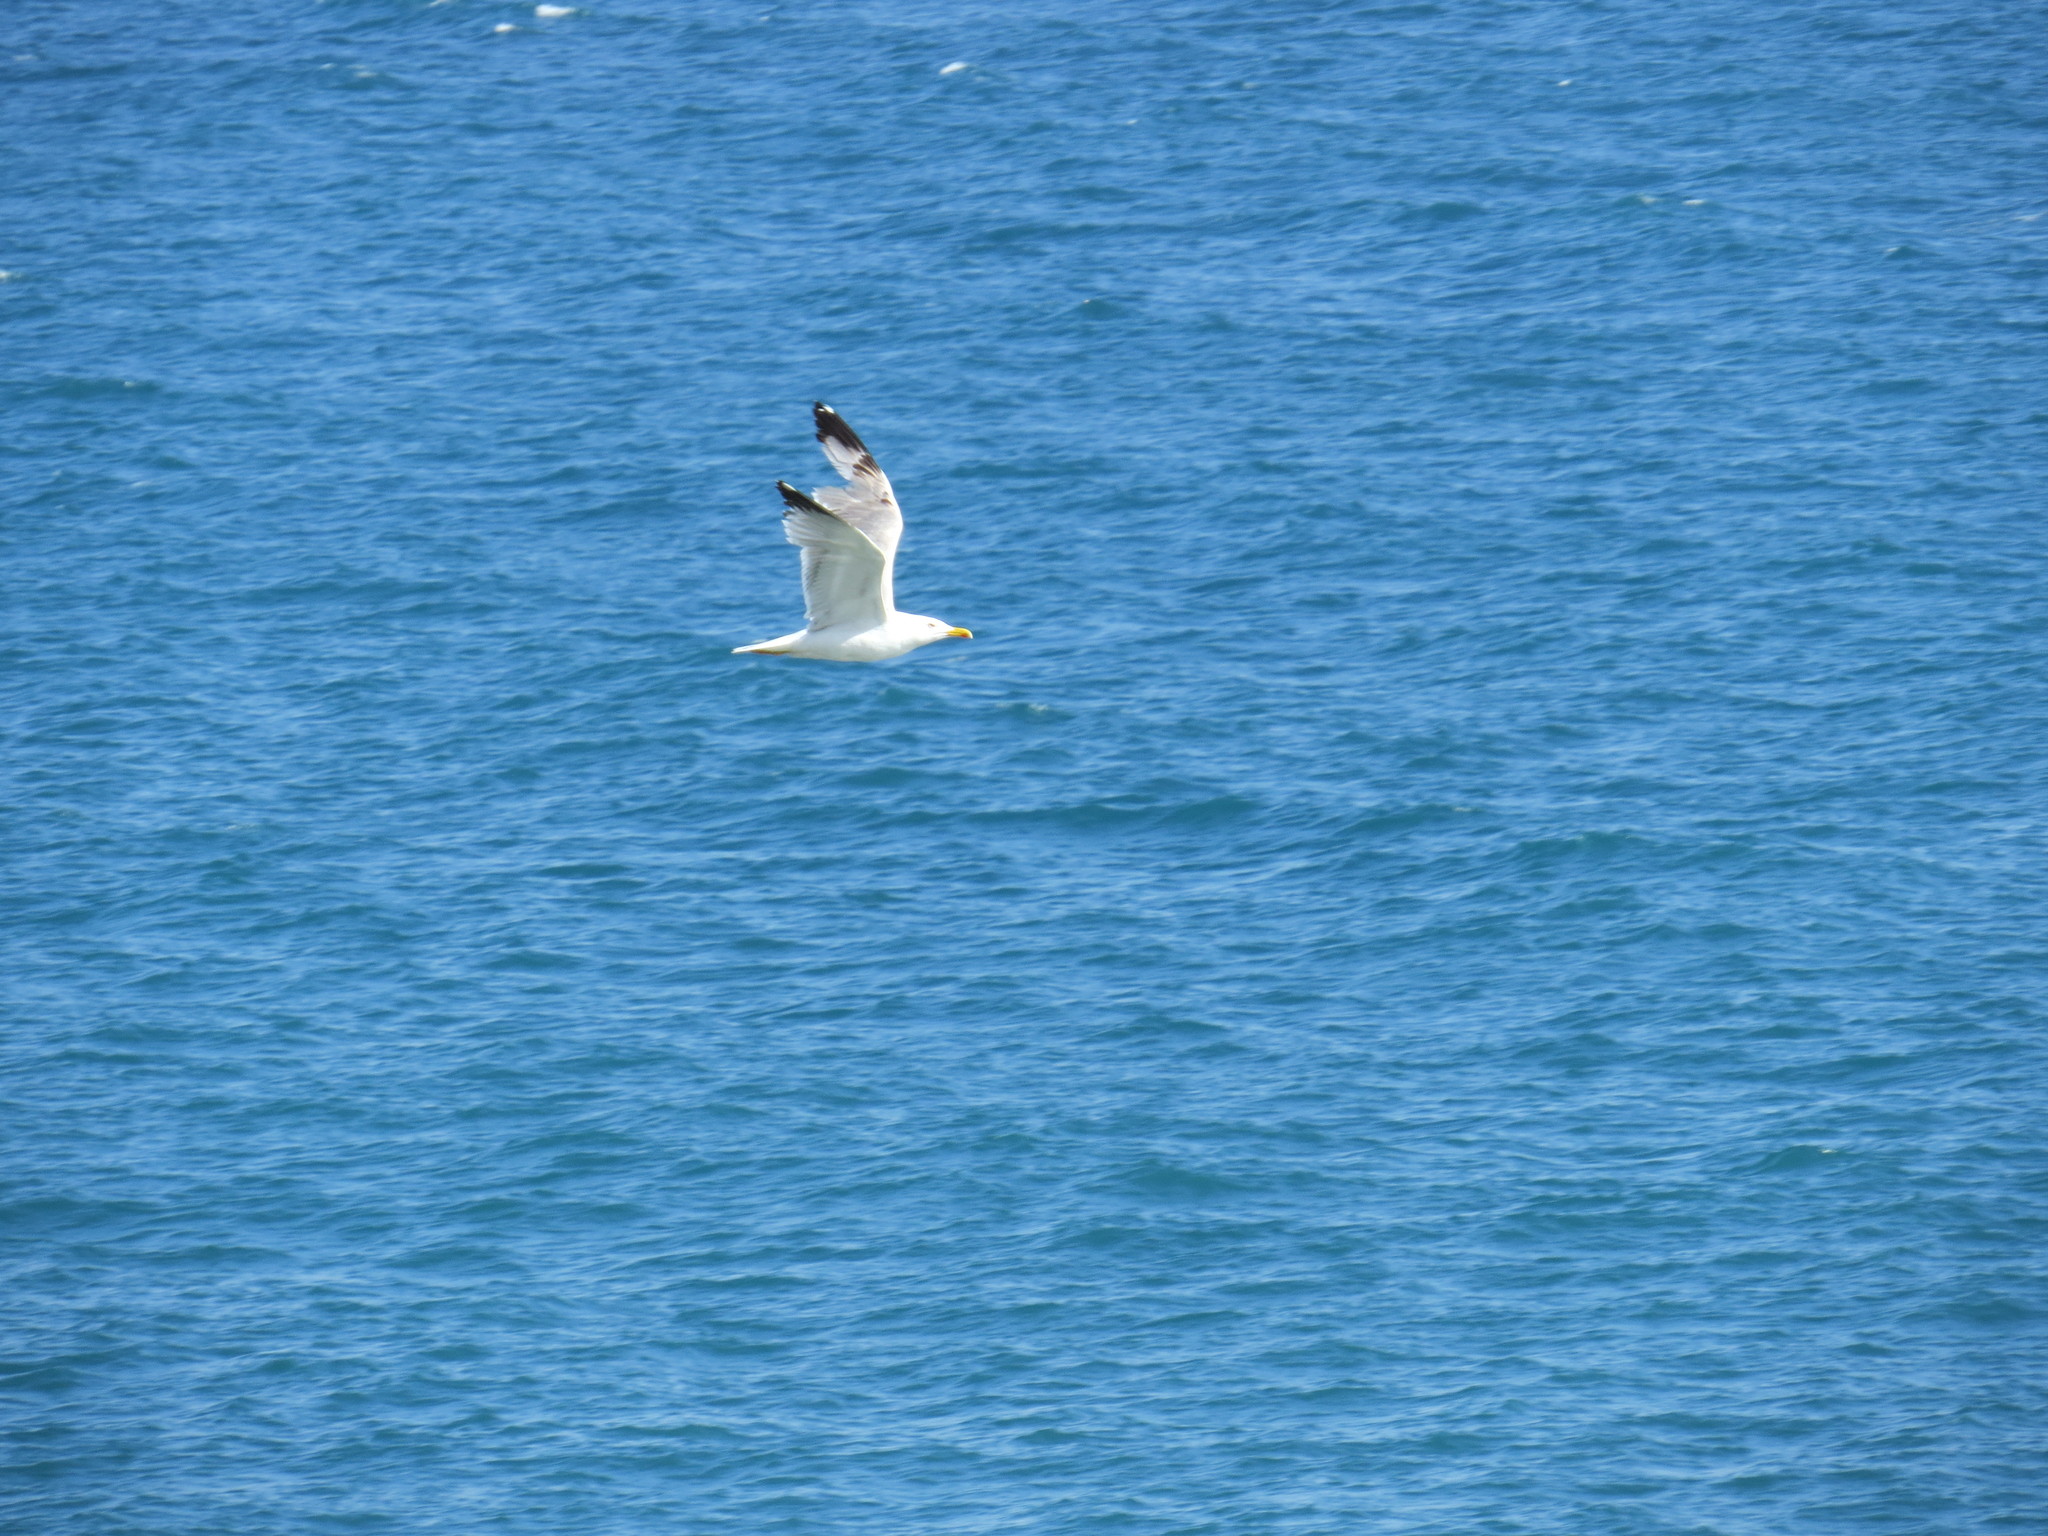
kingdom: Animalia
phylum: Chordata
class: Aves
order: Charadriiformes
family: Laridae
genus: Larus
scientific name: Larus michahellis
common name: Yellow-legged gull
